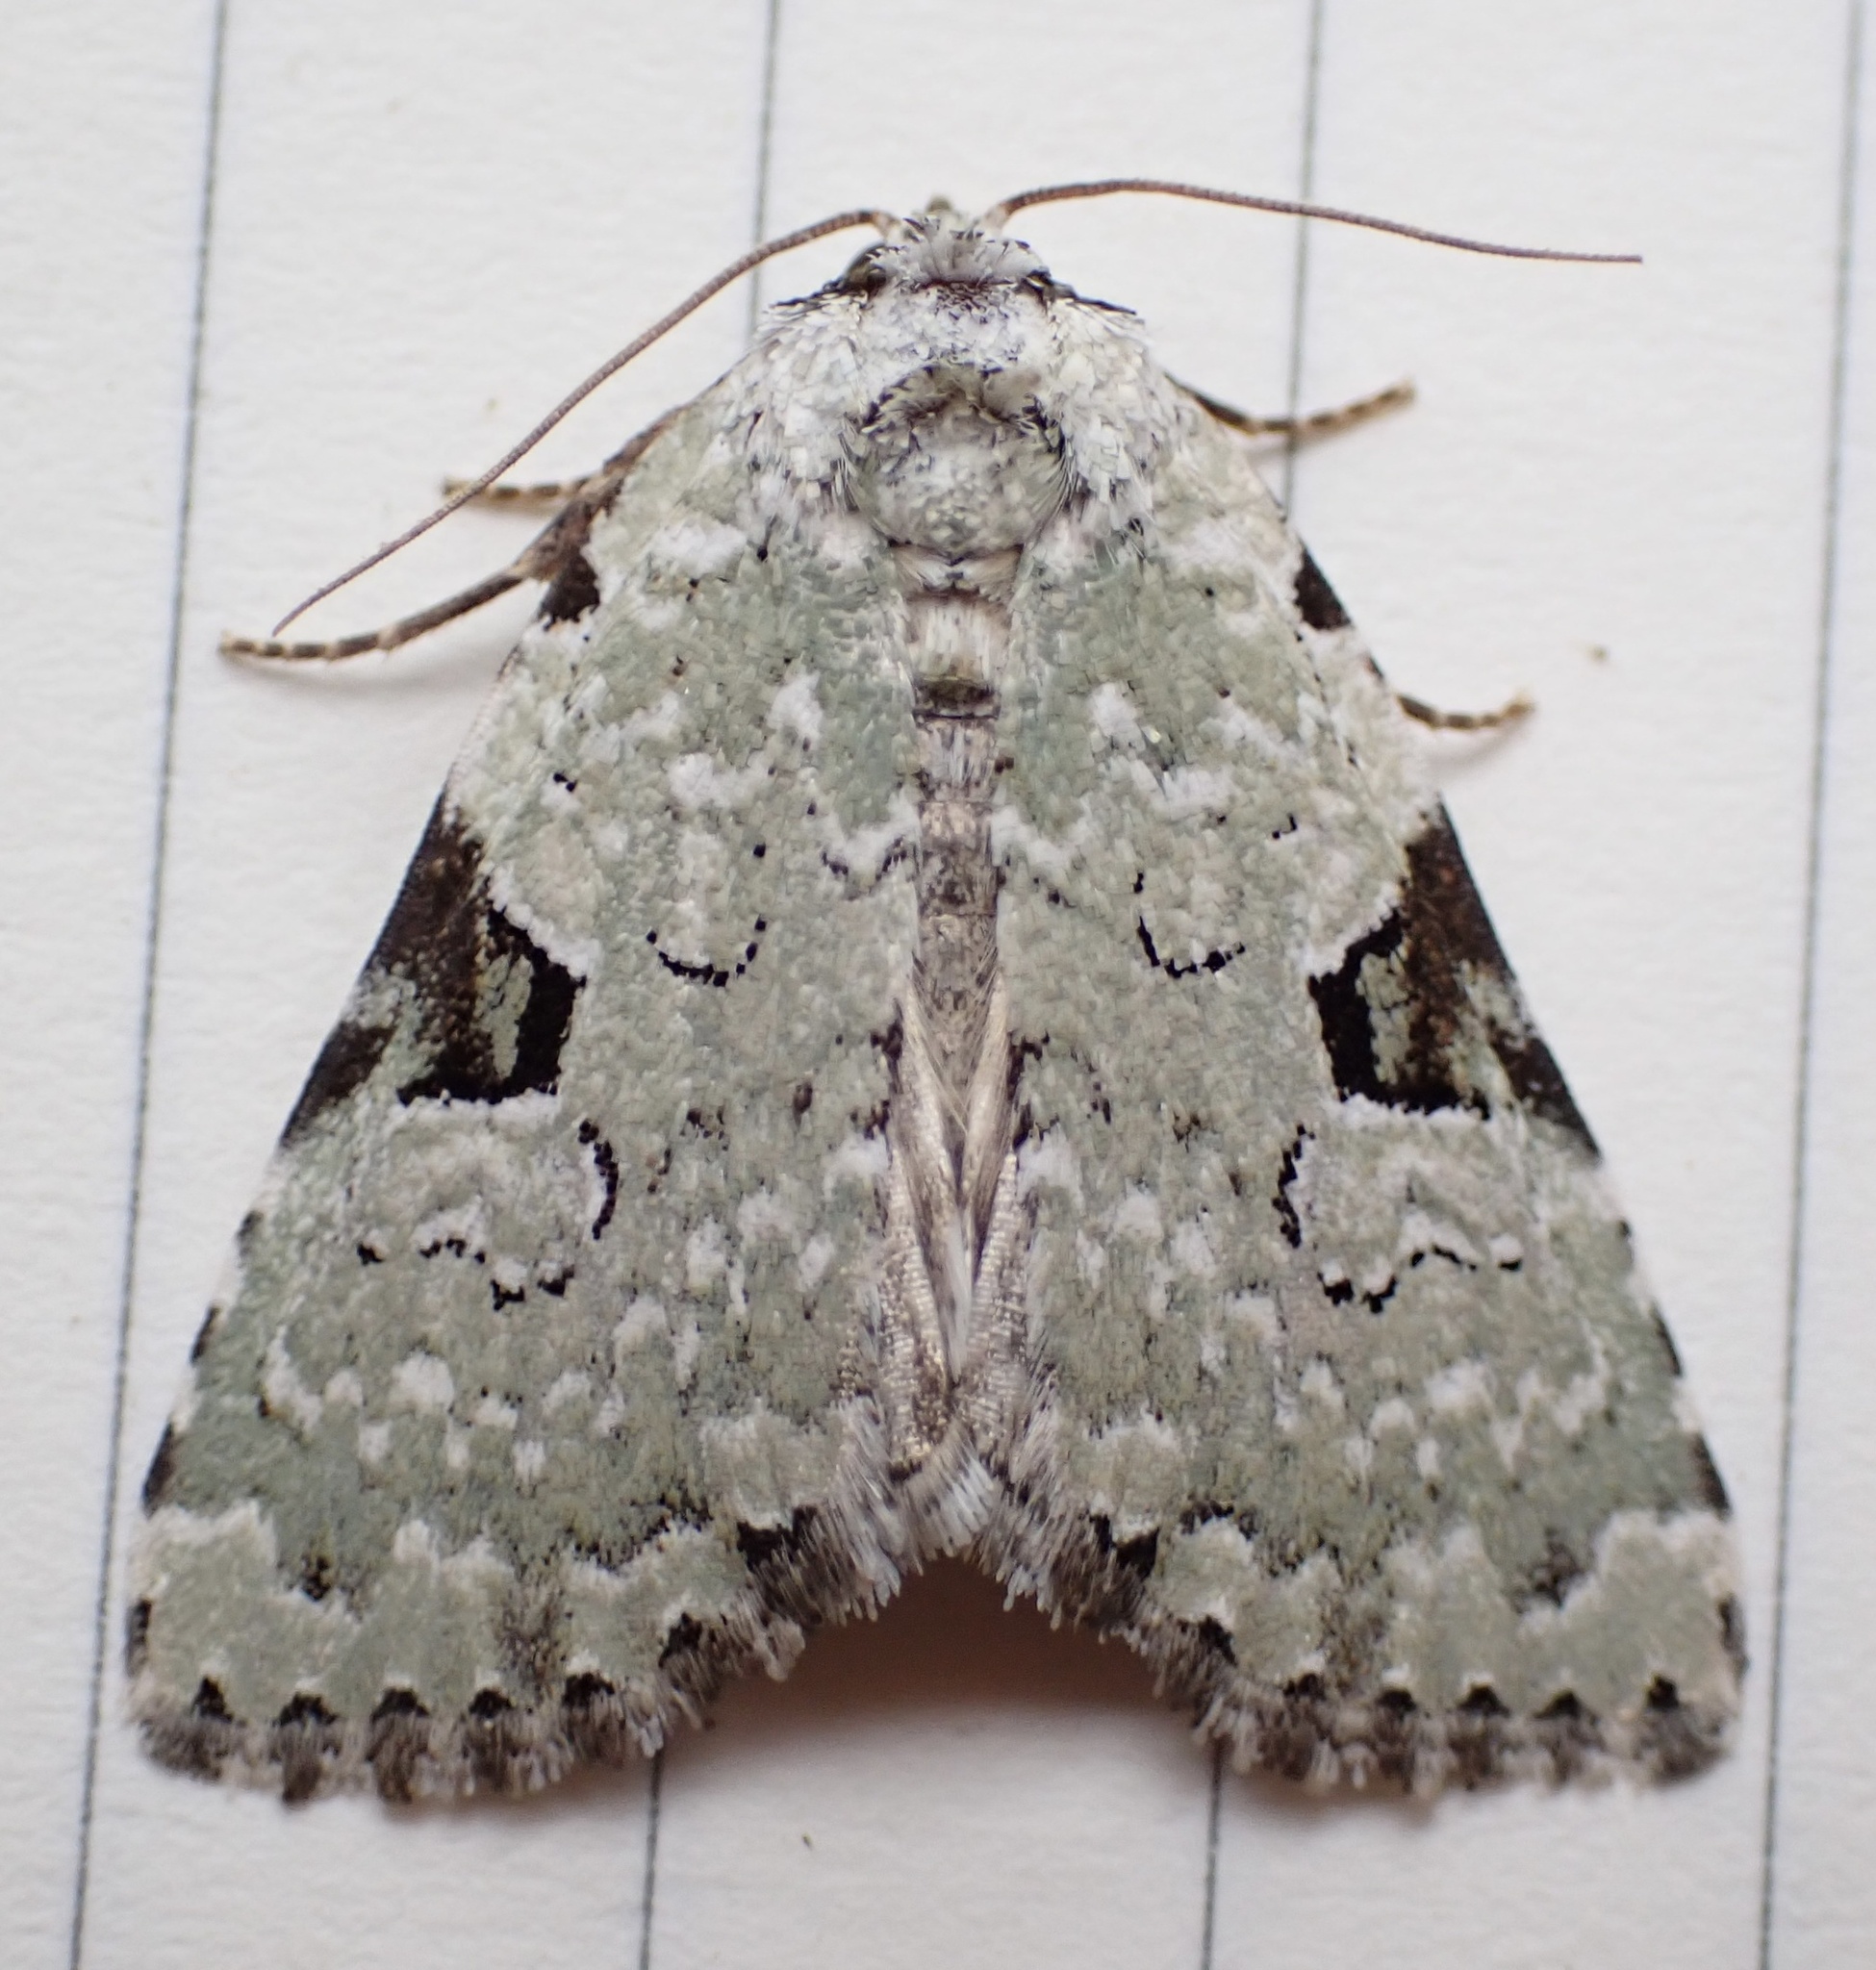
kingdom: Animalia
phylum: Arthropoda
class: Insecta
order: Lepidoptera
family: Noctuidae
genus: Leuconycta
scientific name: Leuconycta diphteroides
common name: Green leuconycta moth
